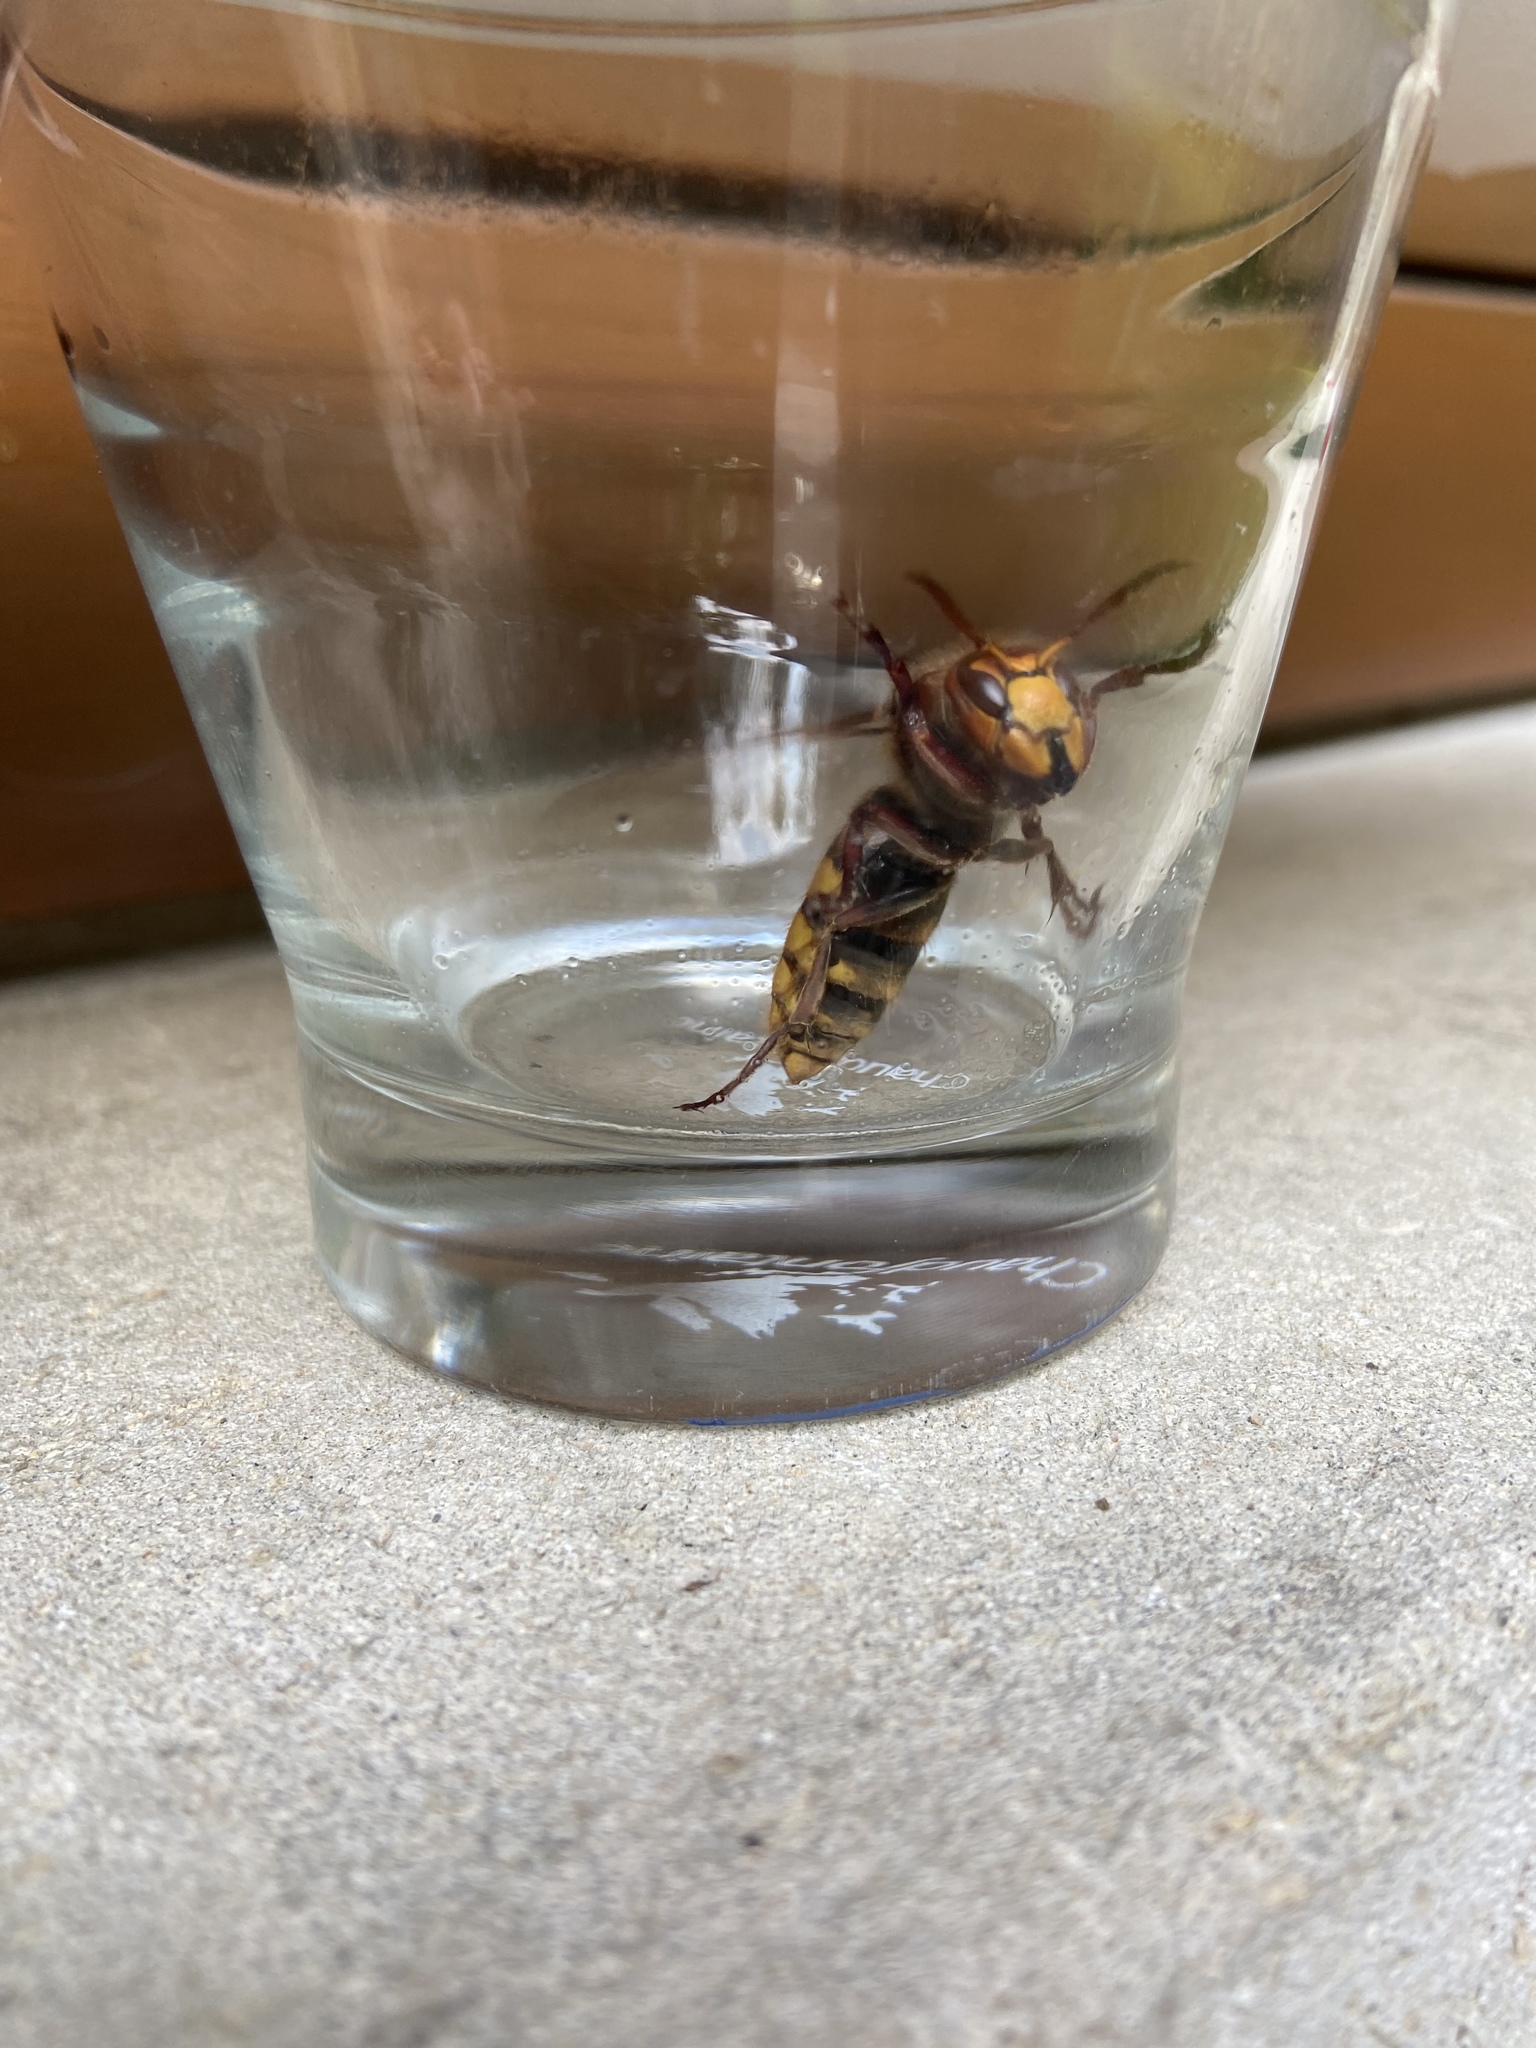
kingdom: Animalia
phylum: Arthropoda
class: Insecta
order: Hymenoptera
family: Vespidae
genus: Vespa
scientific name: Vespa crabro
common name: Hornet
